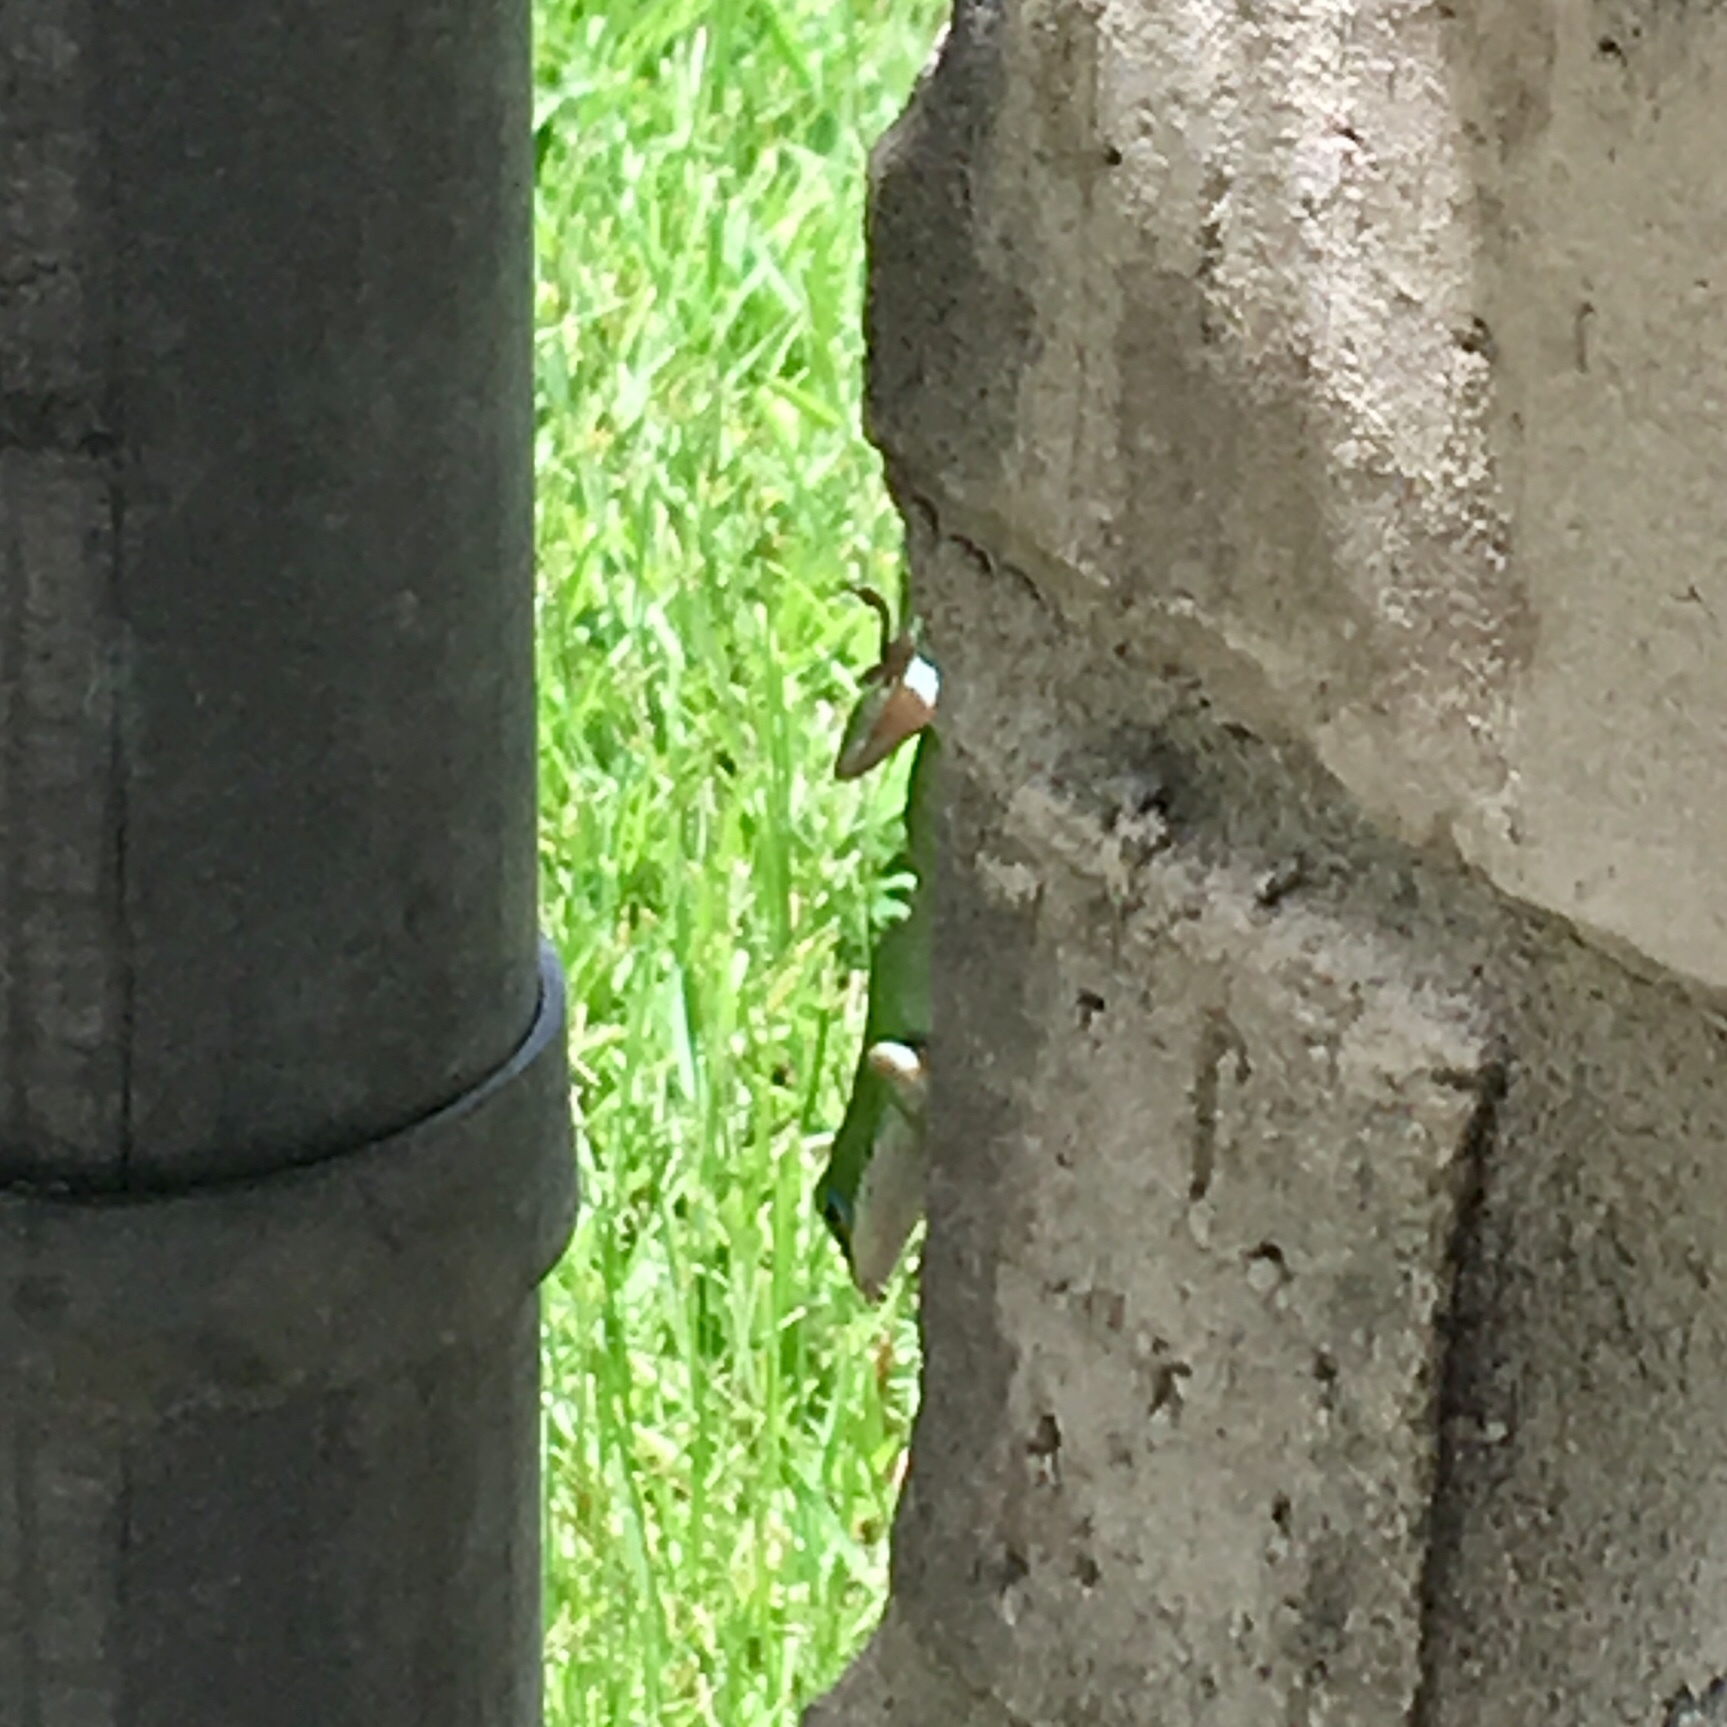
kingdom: Animalia
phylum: Chordata
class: Squamata
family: Dactyloidae
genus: Anolis
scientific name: Anolis carolinensis
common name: Green anole
